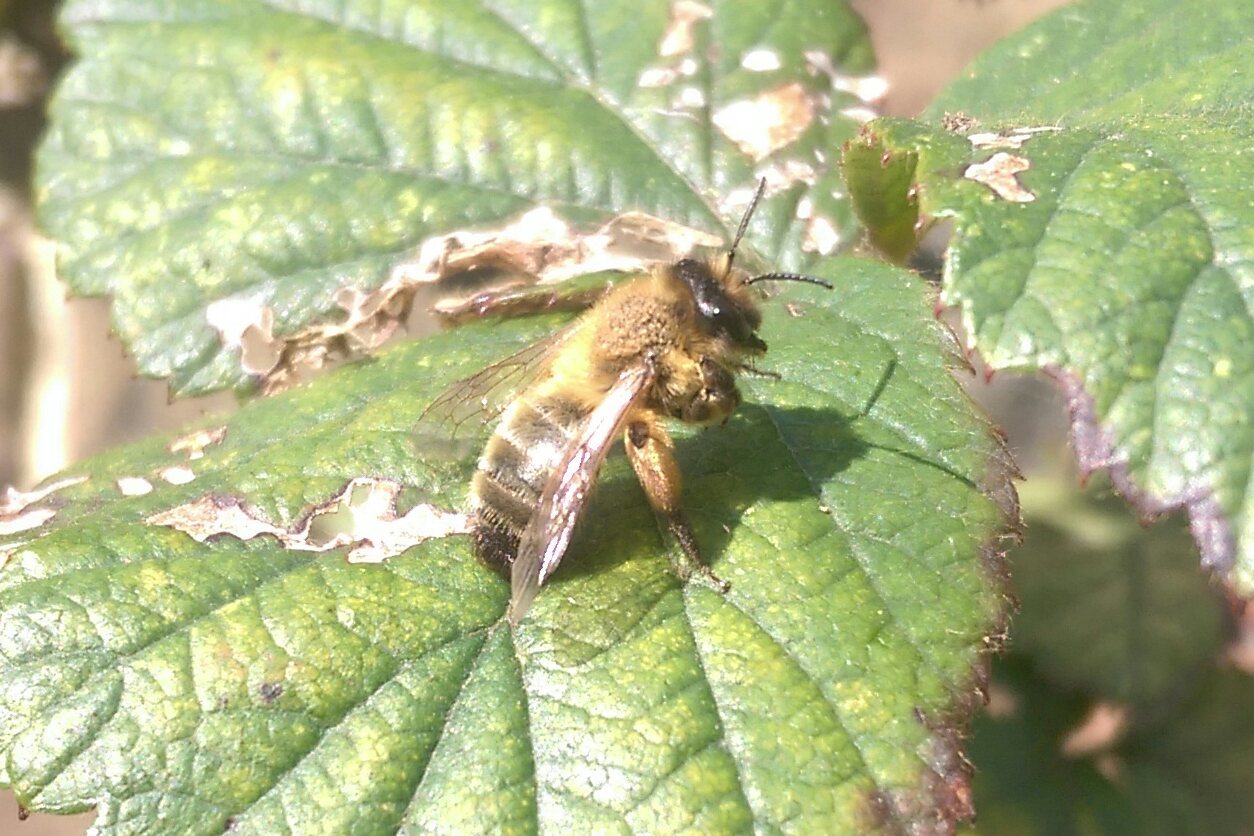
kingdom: Animalia
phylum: Arthropoda
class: Insecta
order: Hymenoptera
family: Andrenidae
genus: Andrena
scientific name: Andrena nigroaenea
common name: Buffish mining bee
